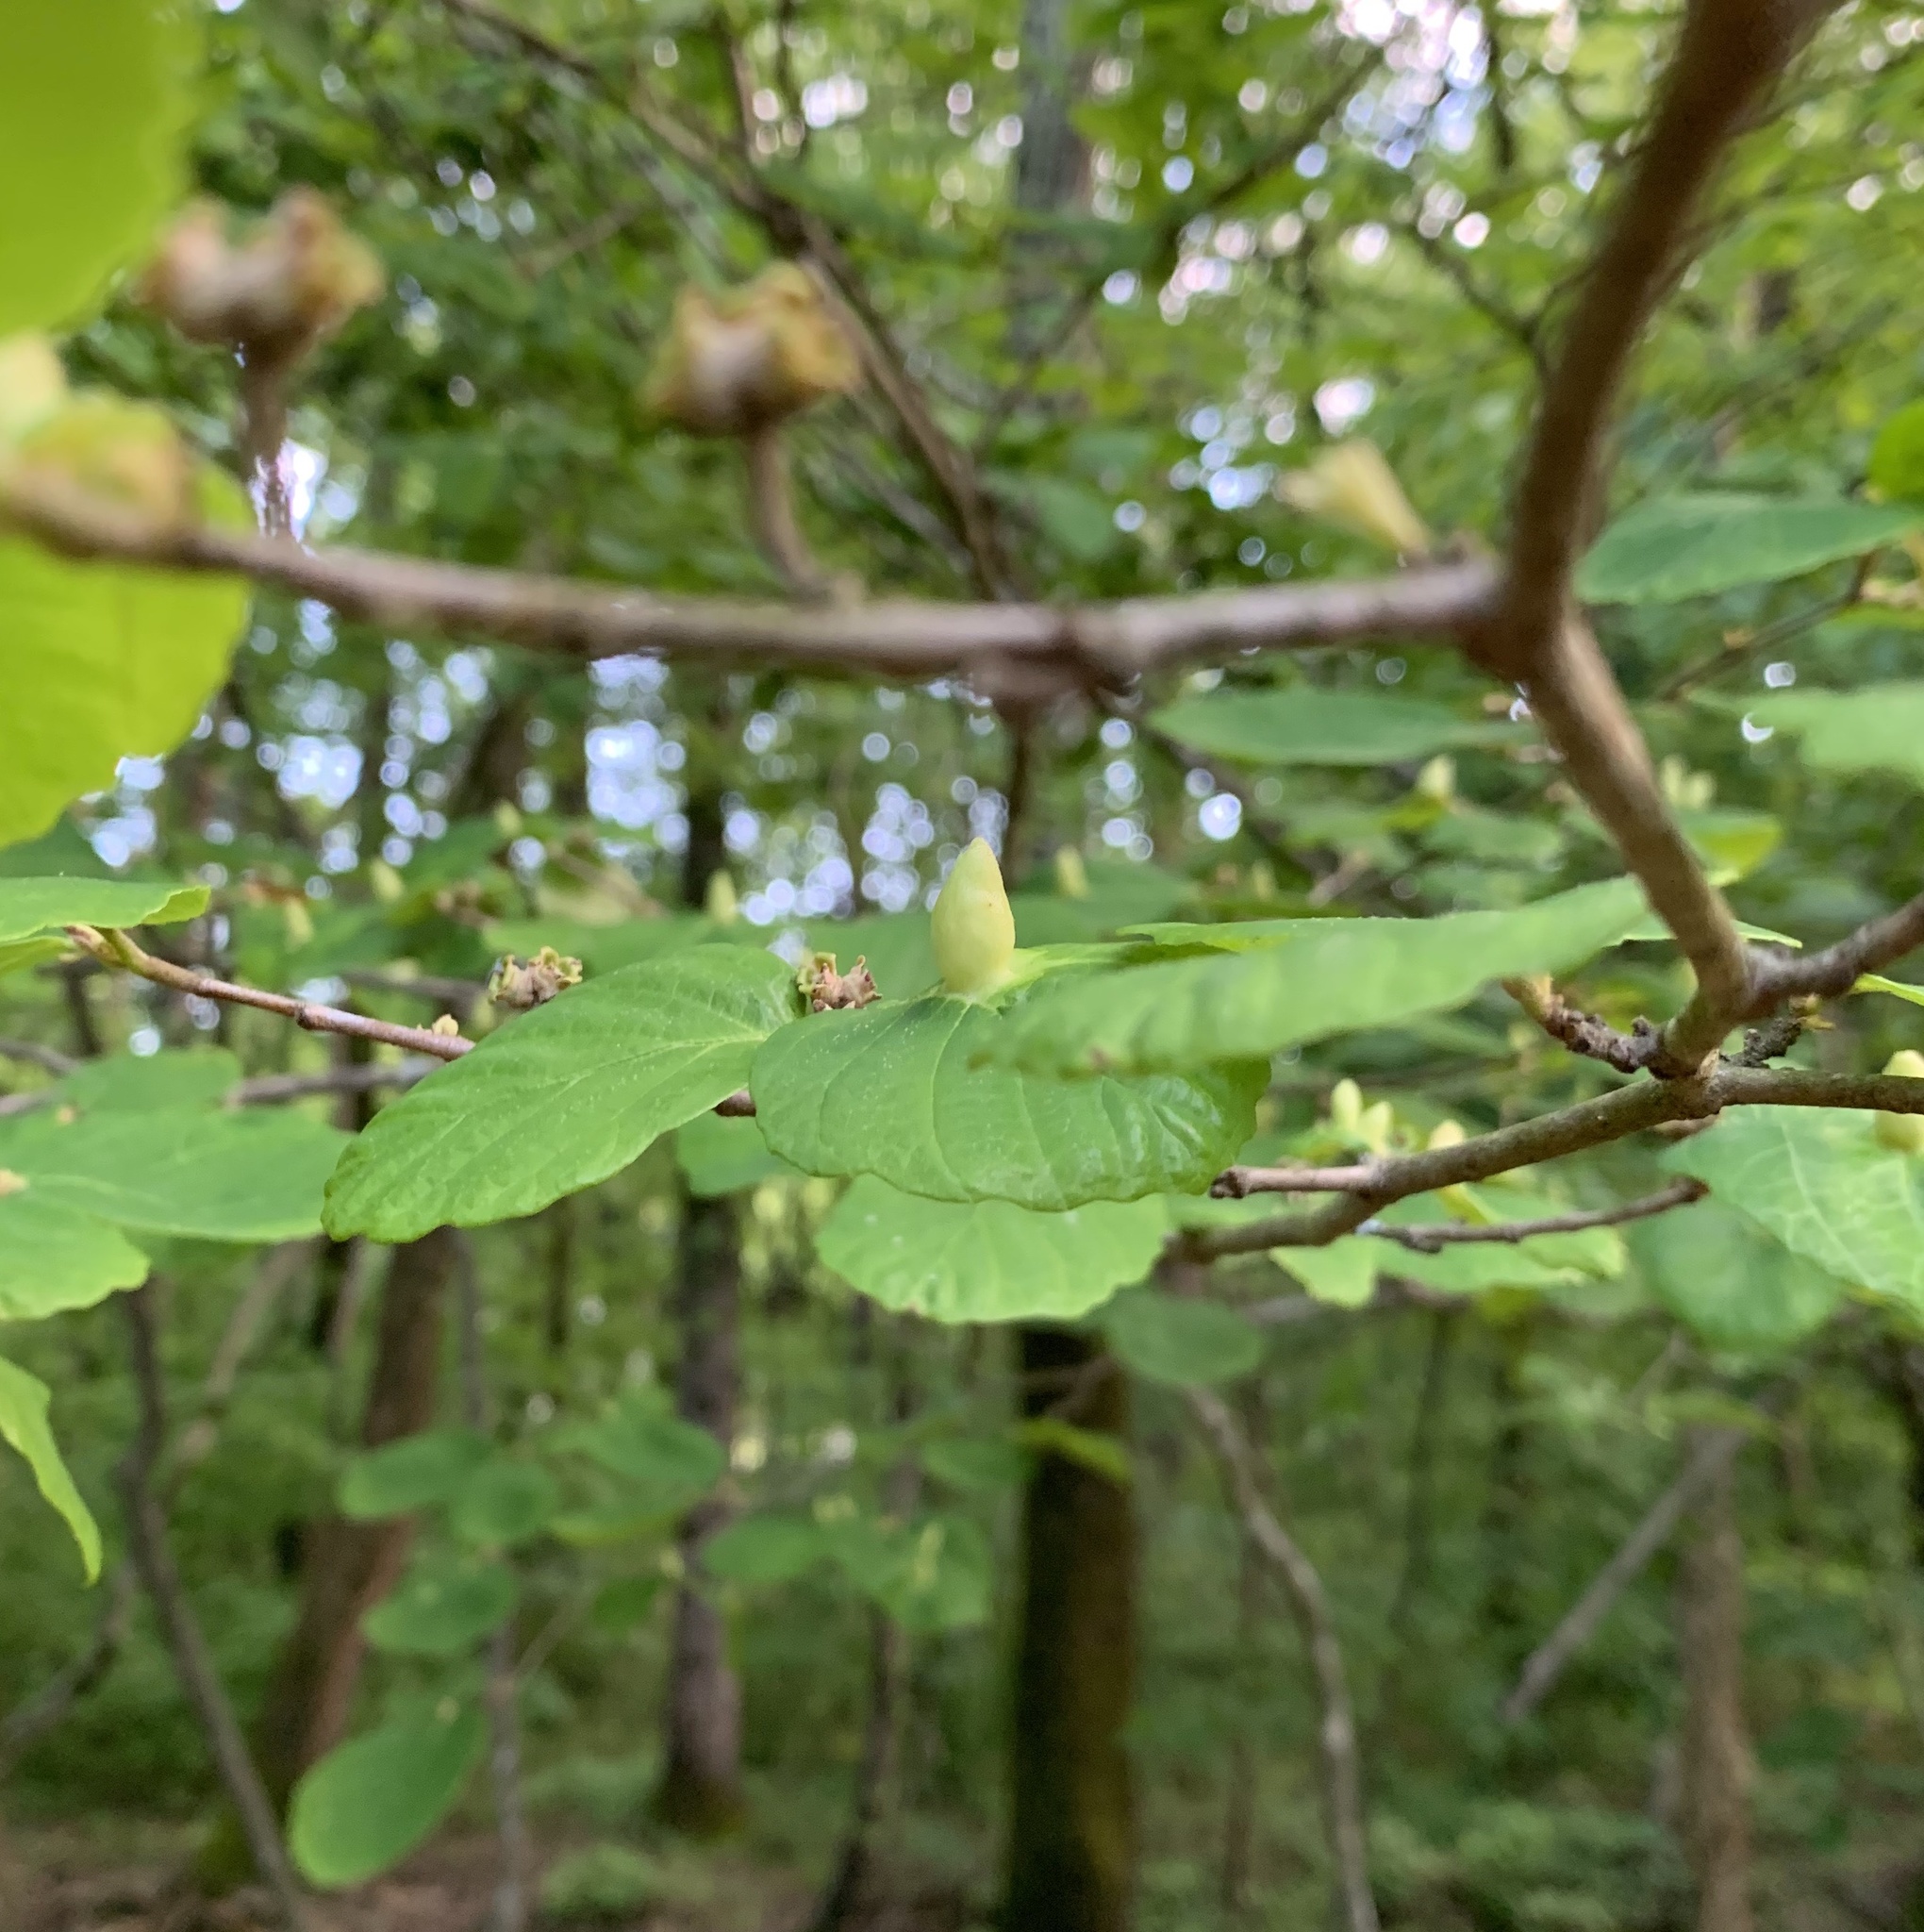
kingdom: Animalia
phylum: Arthropoda
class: Insecta
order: Hemiptera
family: Aphididae
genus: Hormaphis
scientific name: Hormaphis hamamelidis
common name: Witch-hazel cone gall aphid
